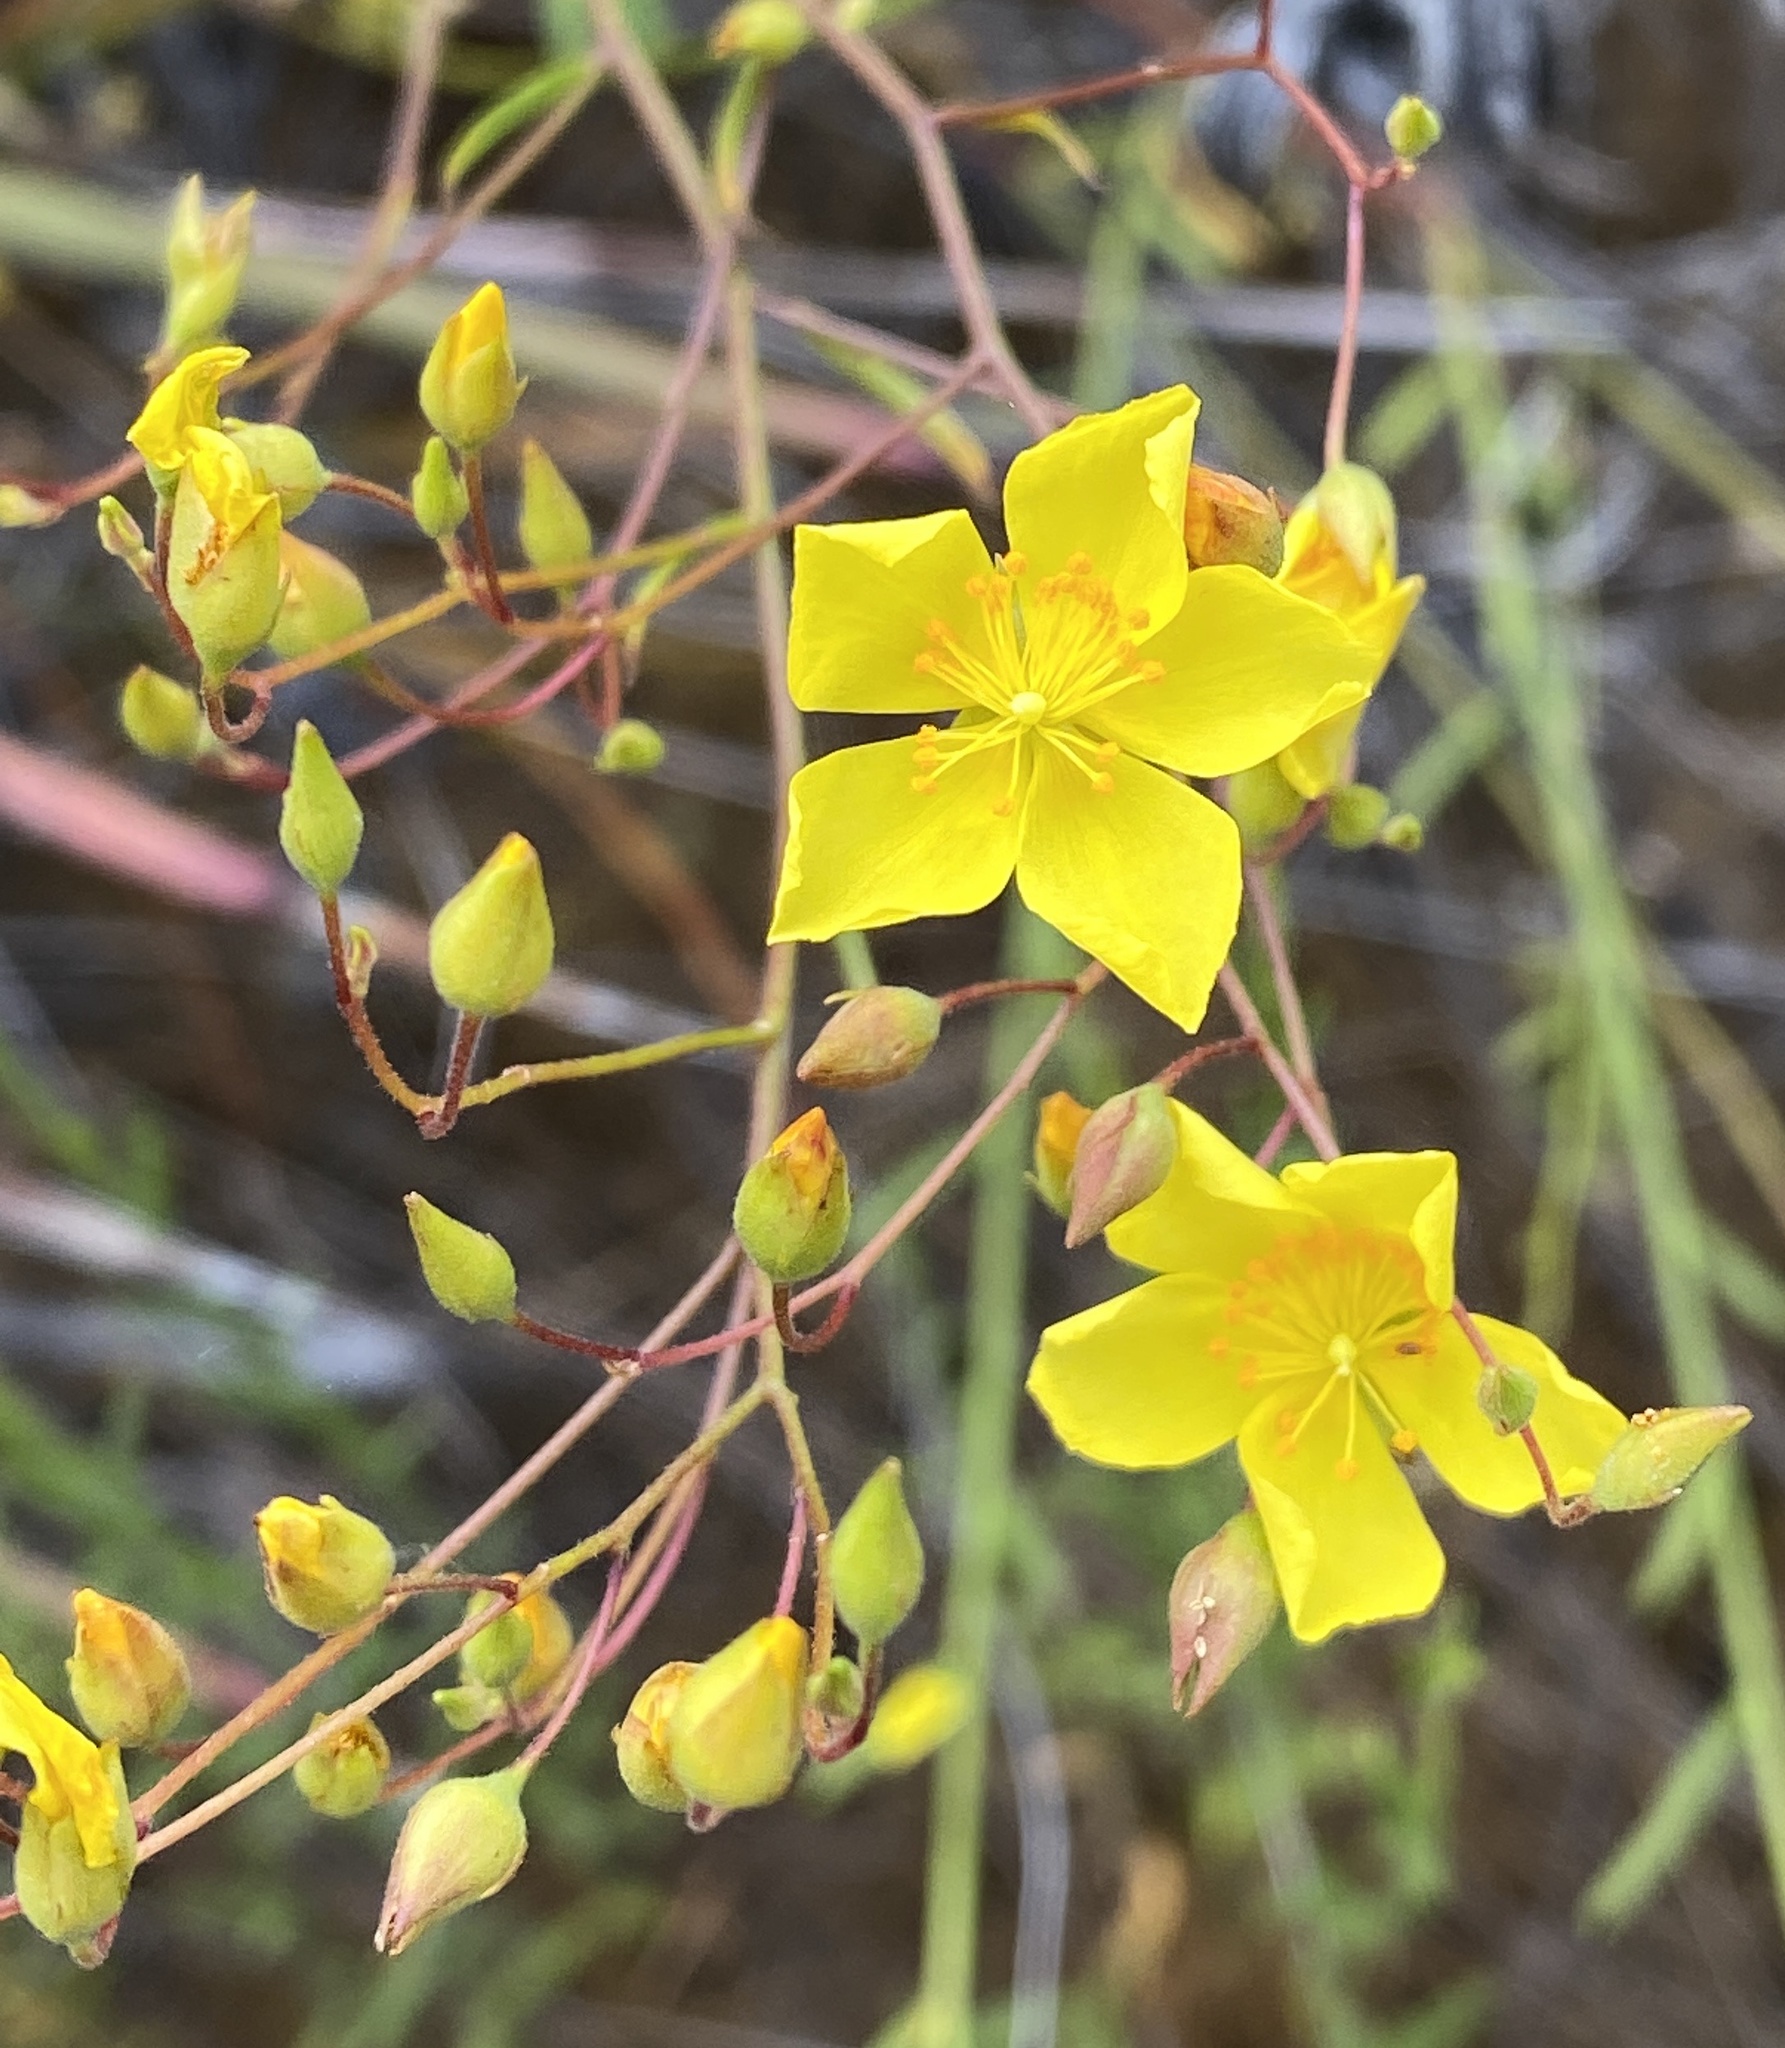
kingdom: Plantae
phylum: Tracheophyta
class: Magnoliopsida
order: Malvales
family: Cistaceae
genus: Crocanthemum
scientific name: Crocanthemum scoparium
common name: Broom-rose
